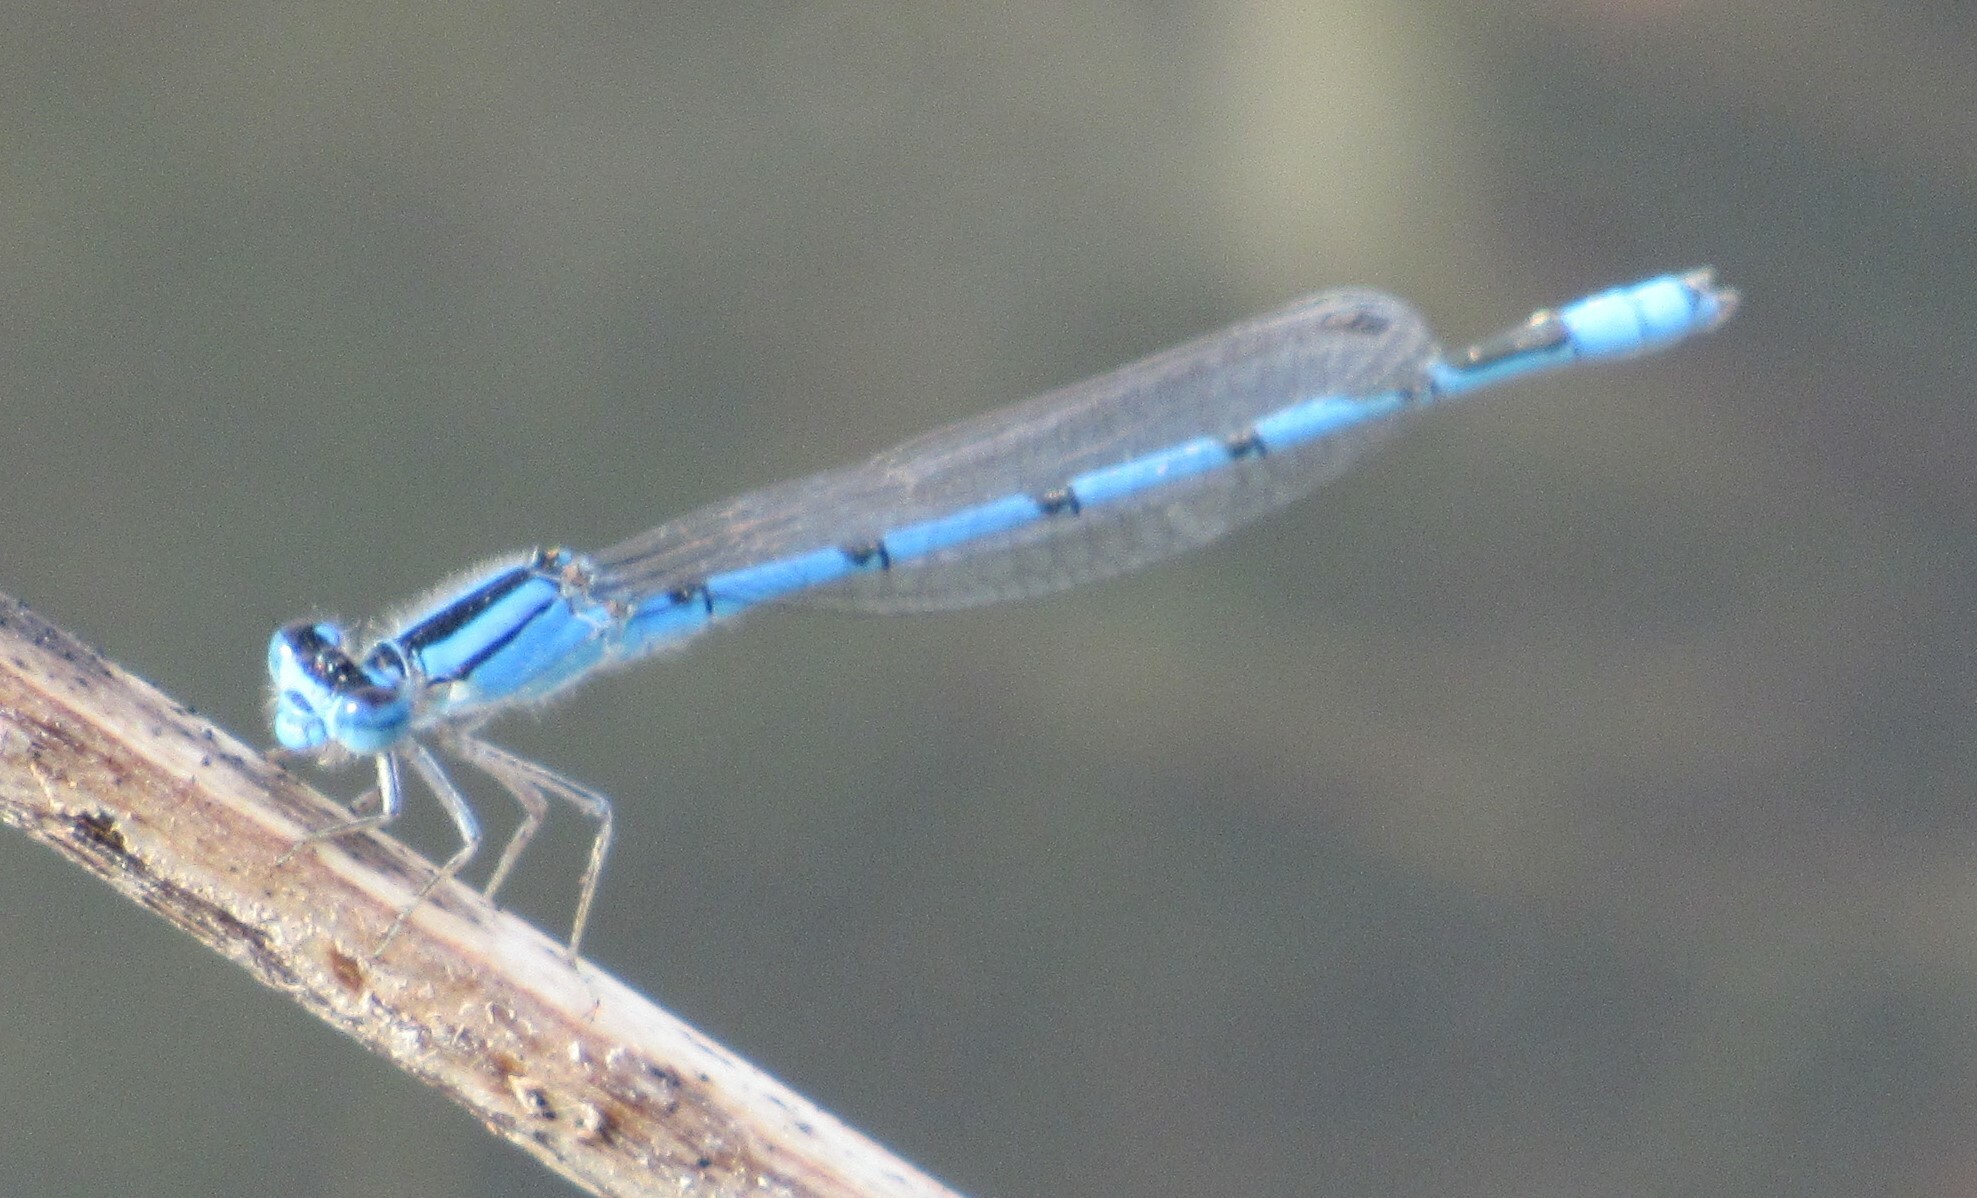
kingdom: Animalia
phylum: Arthropoda
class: Insecta
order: Odonata
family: Coenagrionidae
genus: Enallagma
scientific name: Enallagma civile
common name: Damselfly
